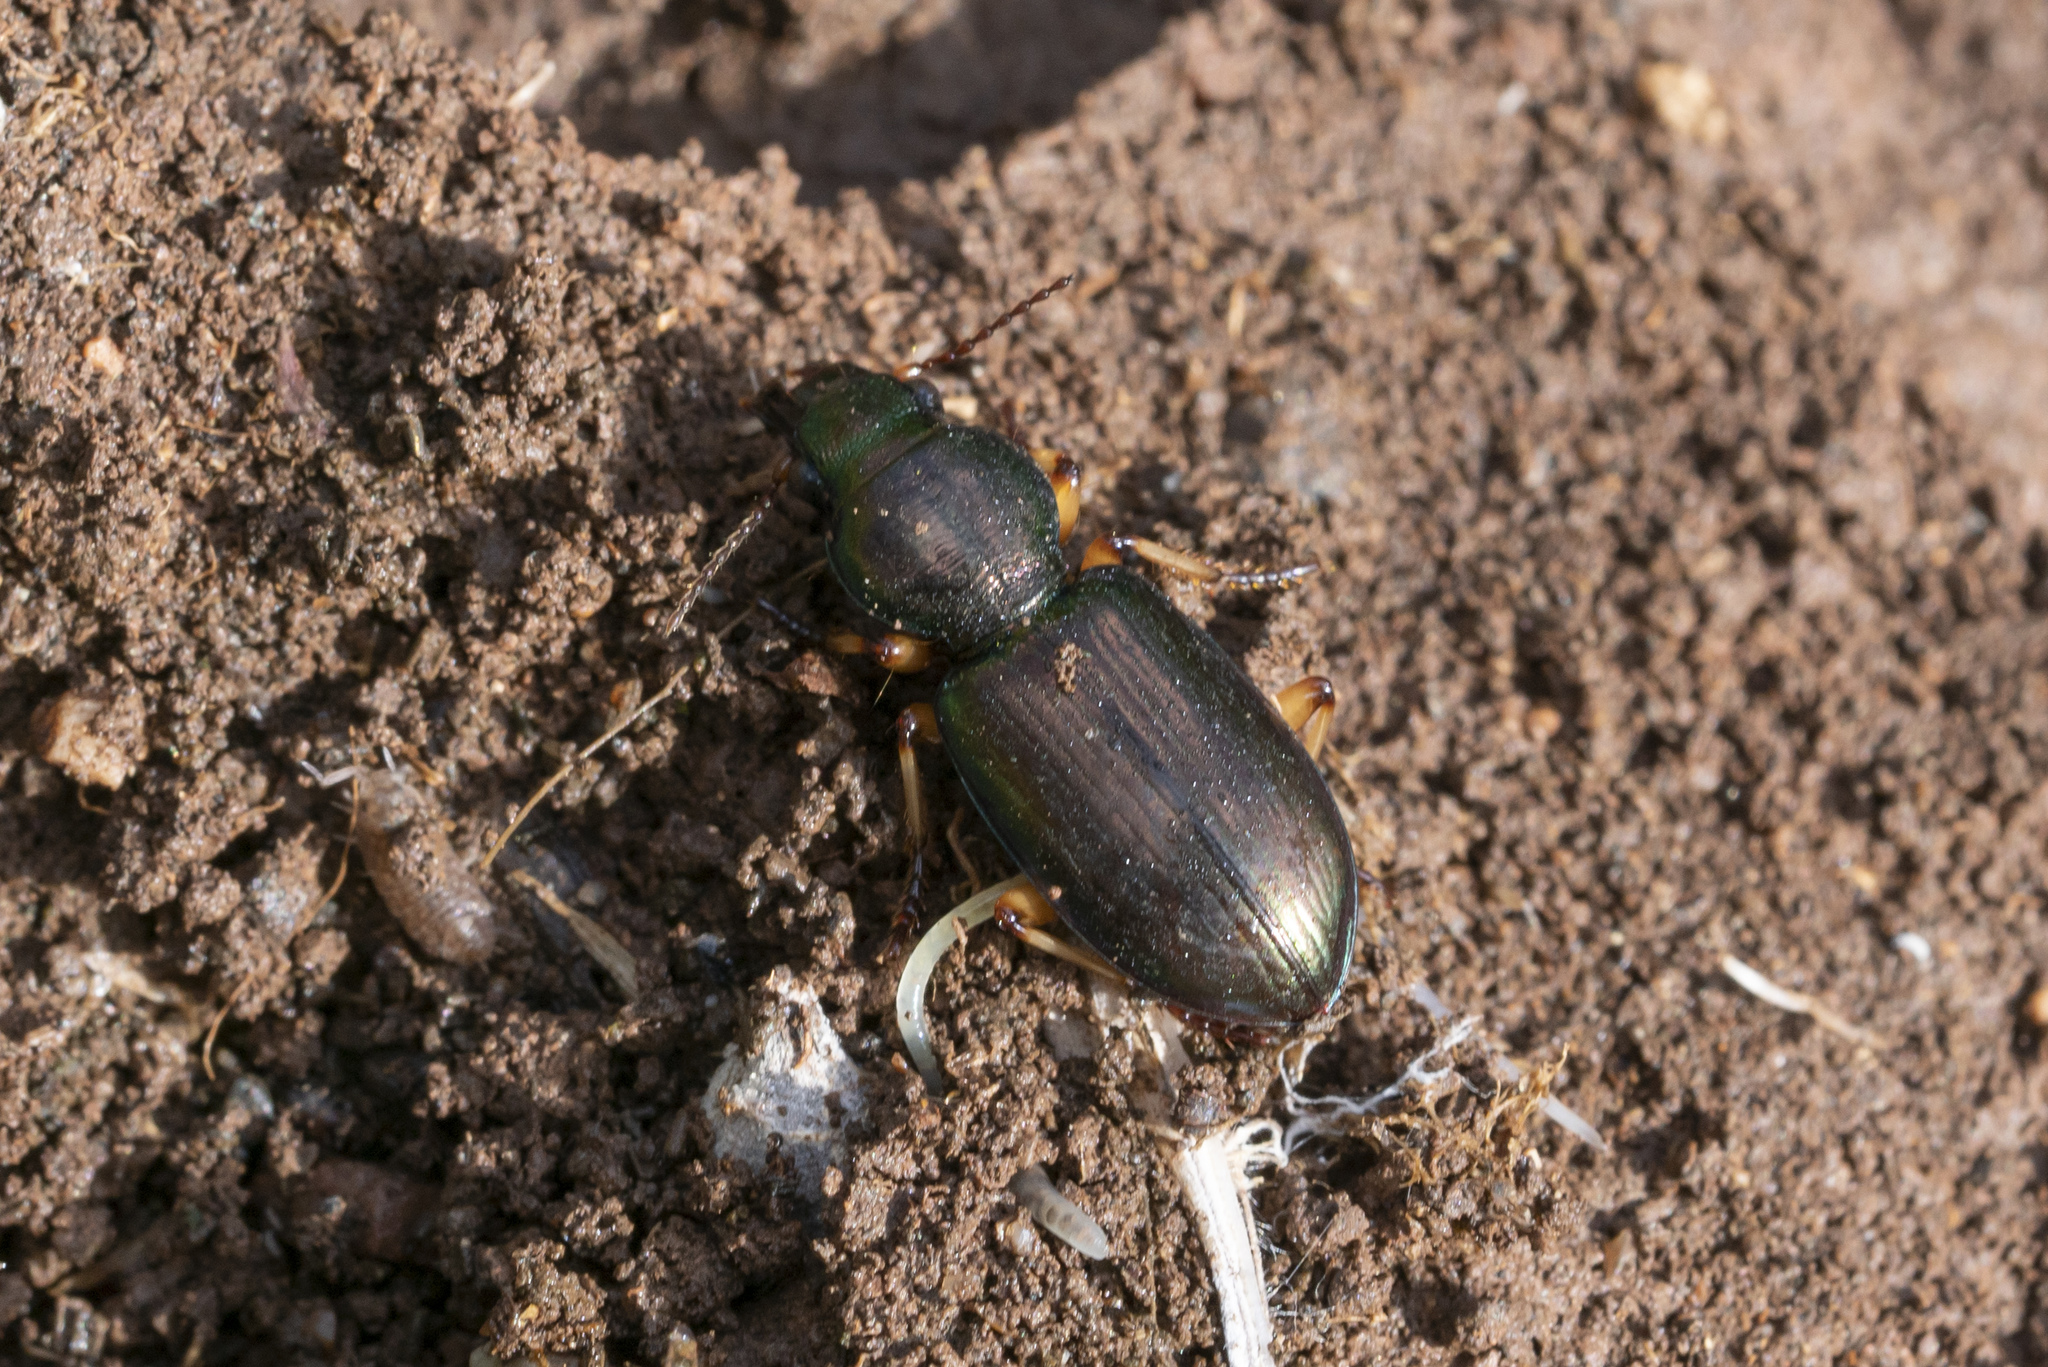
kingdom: Animalia
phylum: Arthropoda
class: Insecta
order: Coleoptera
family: Carabidae
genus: Broscus
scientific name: Broscus nobilis
